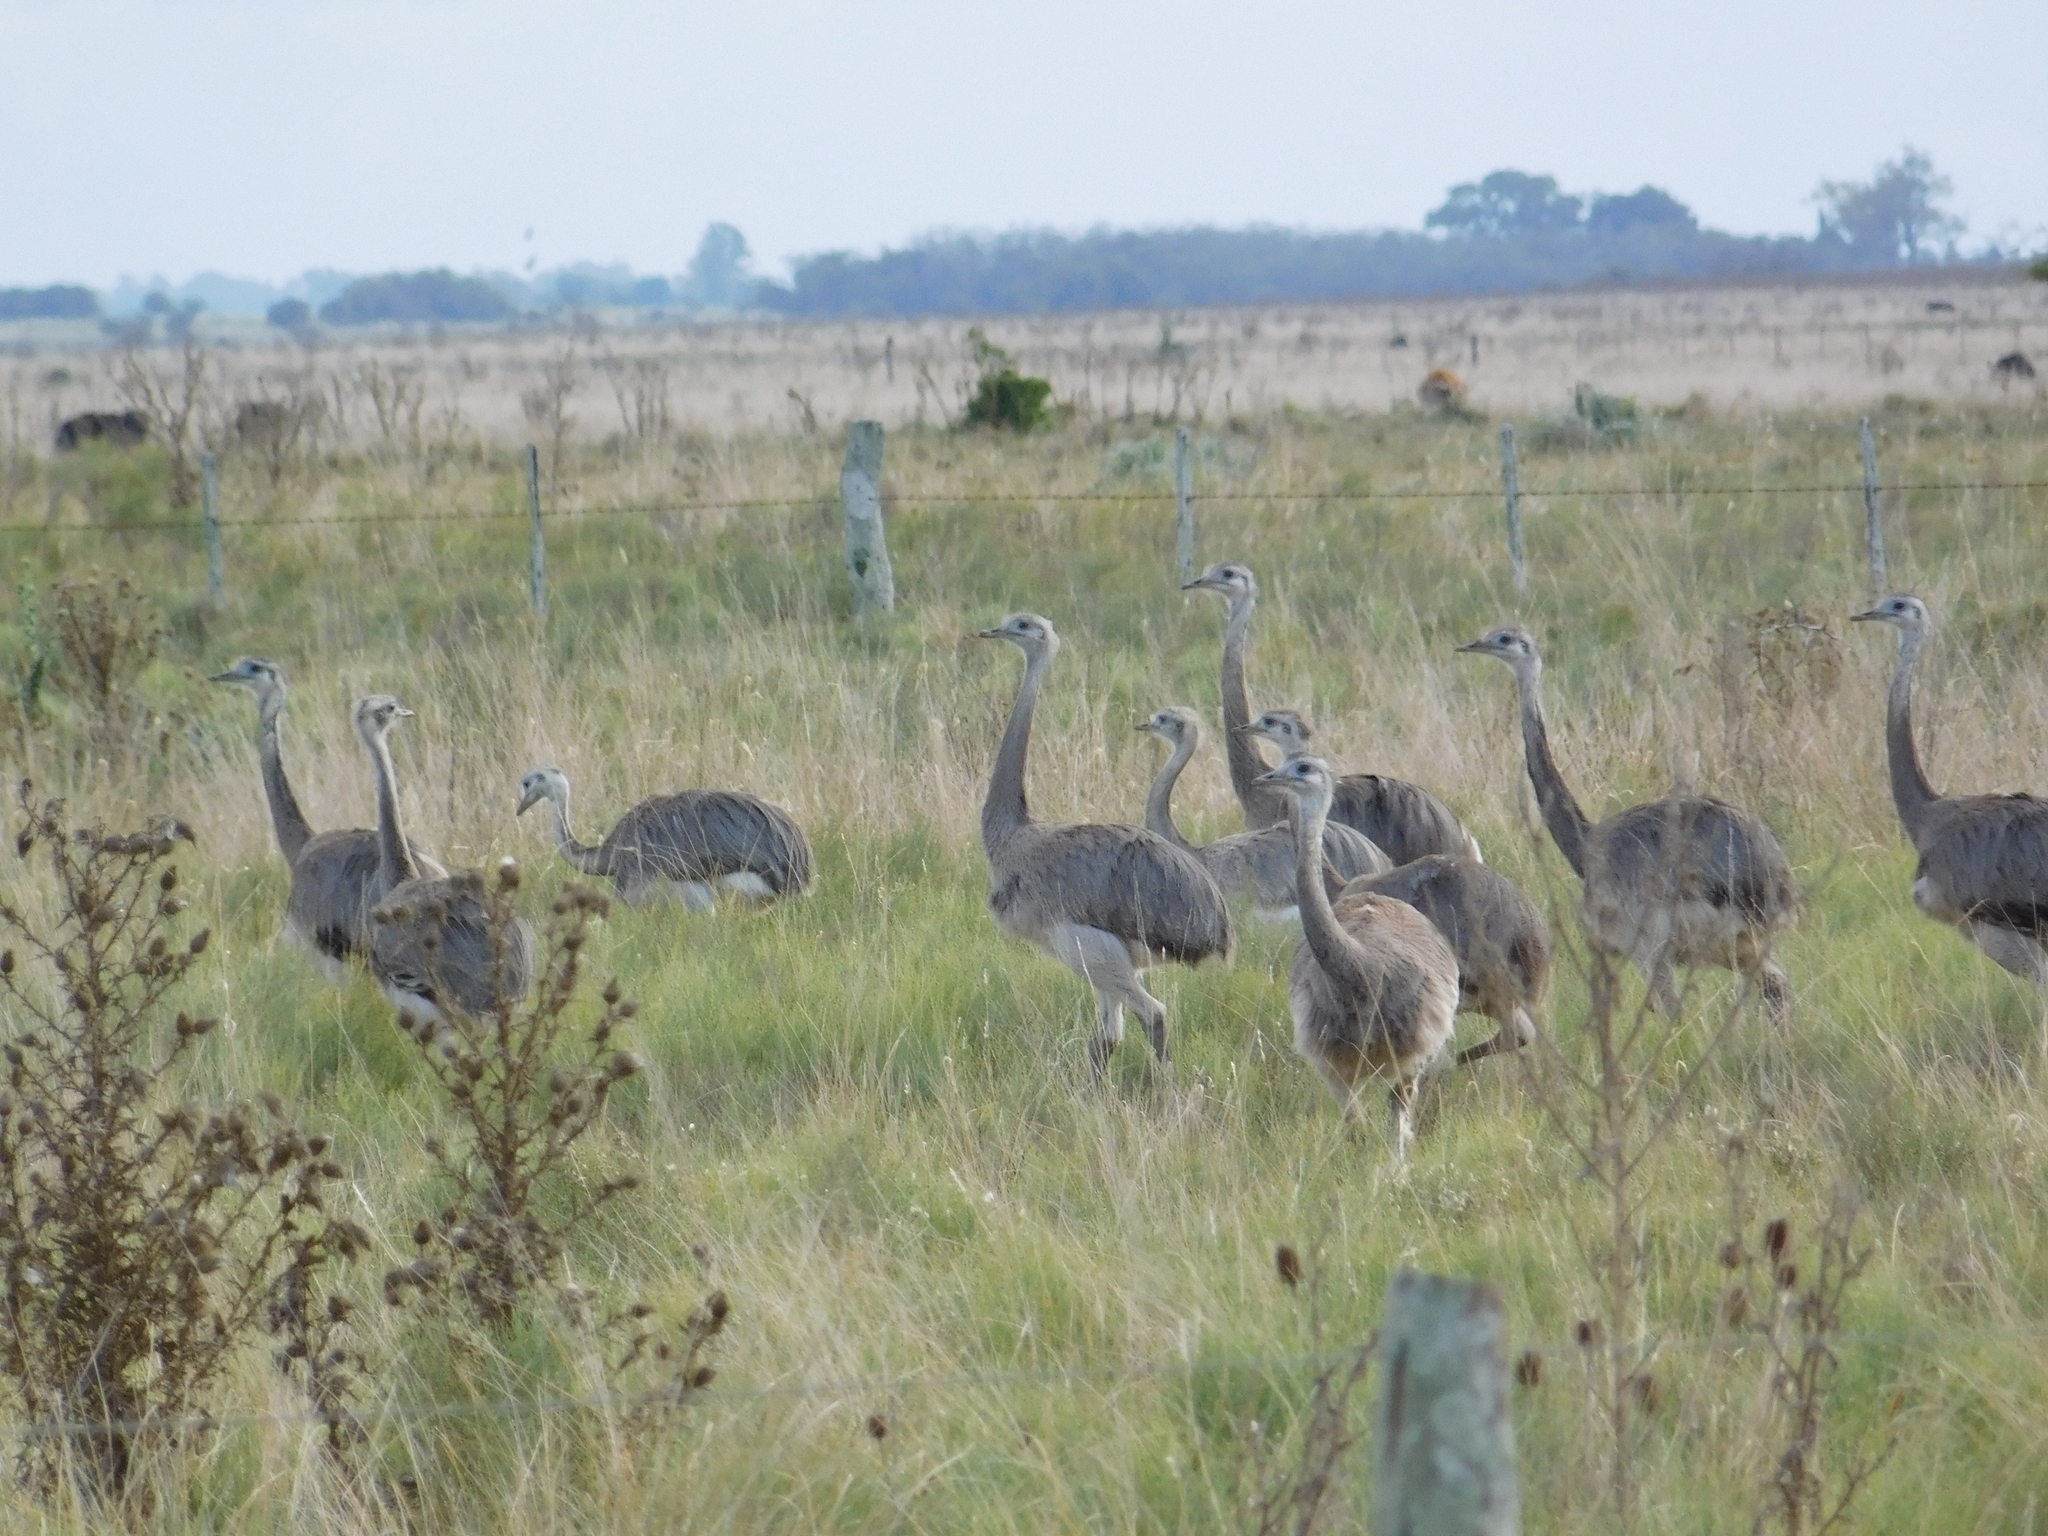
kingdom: Animalia
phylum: Chordata
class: Aves
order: Rheiformes
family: Rheidae
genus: Rhea
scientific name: Rhea americana
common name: Greater rhea
